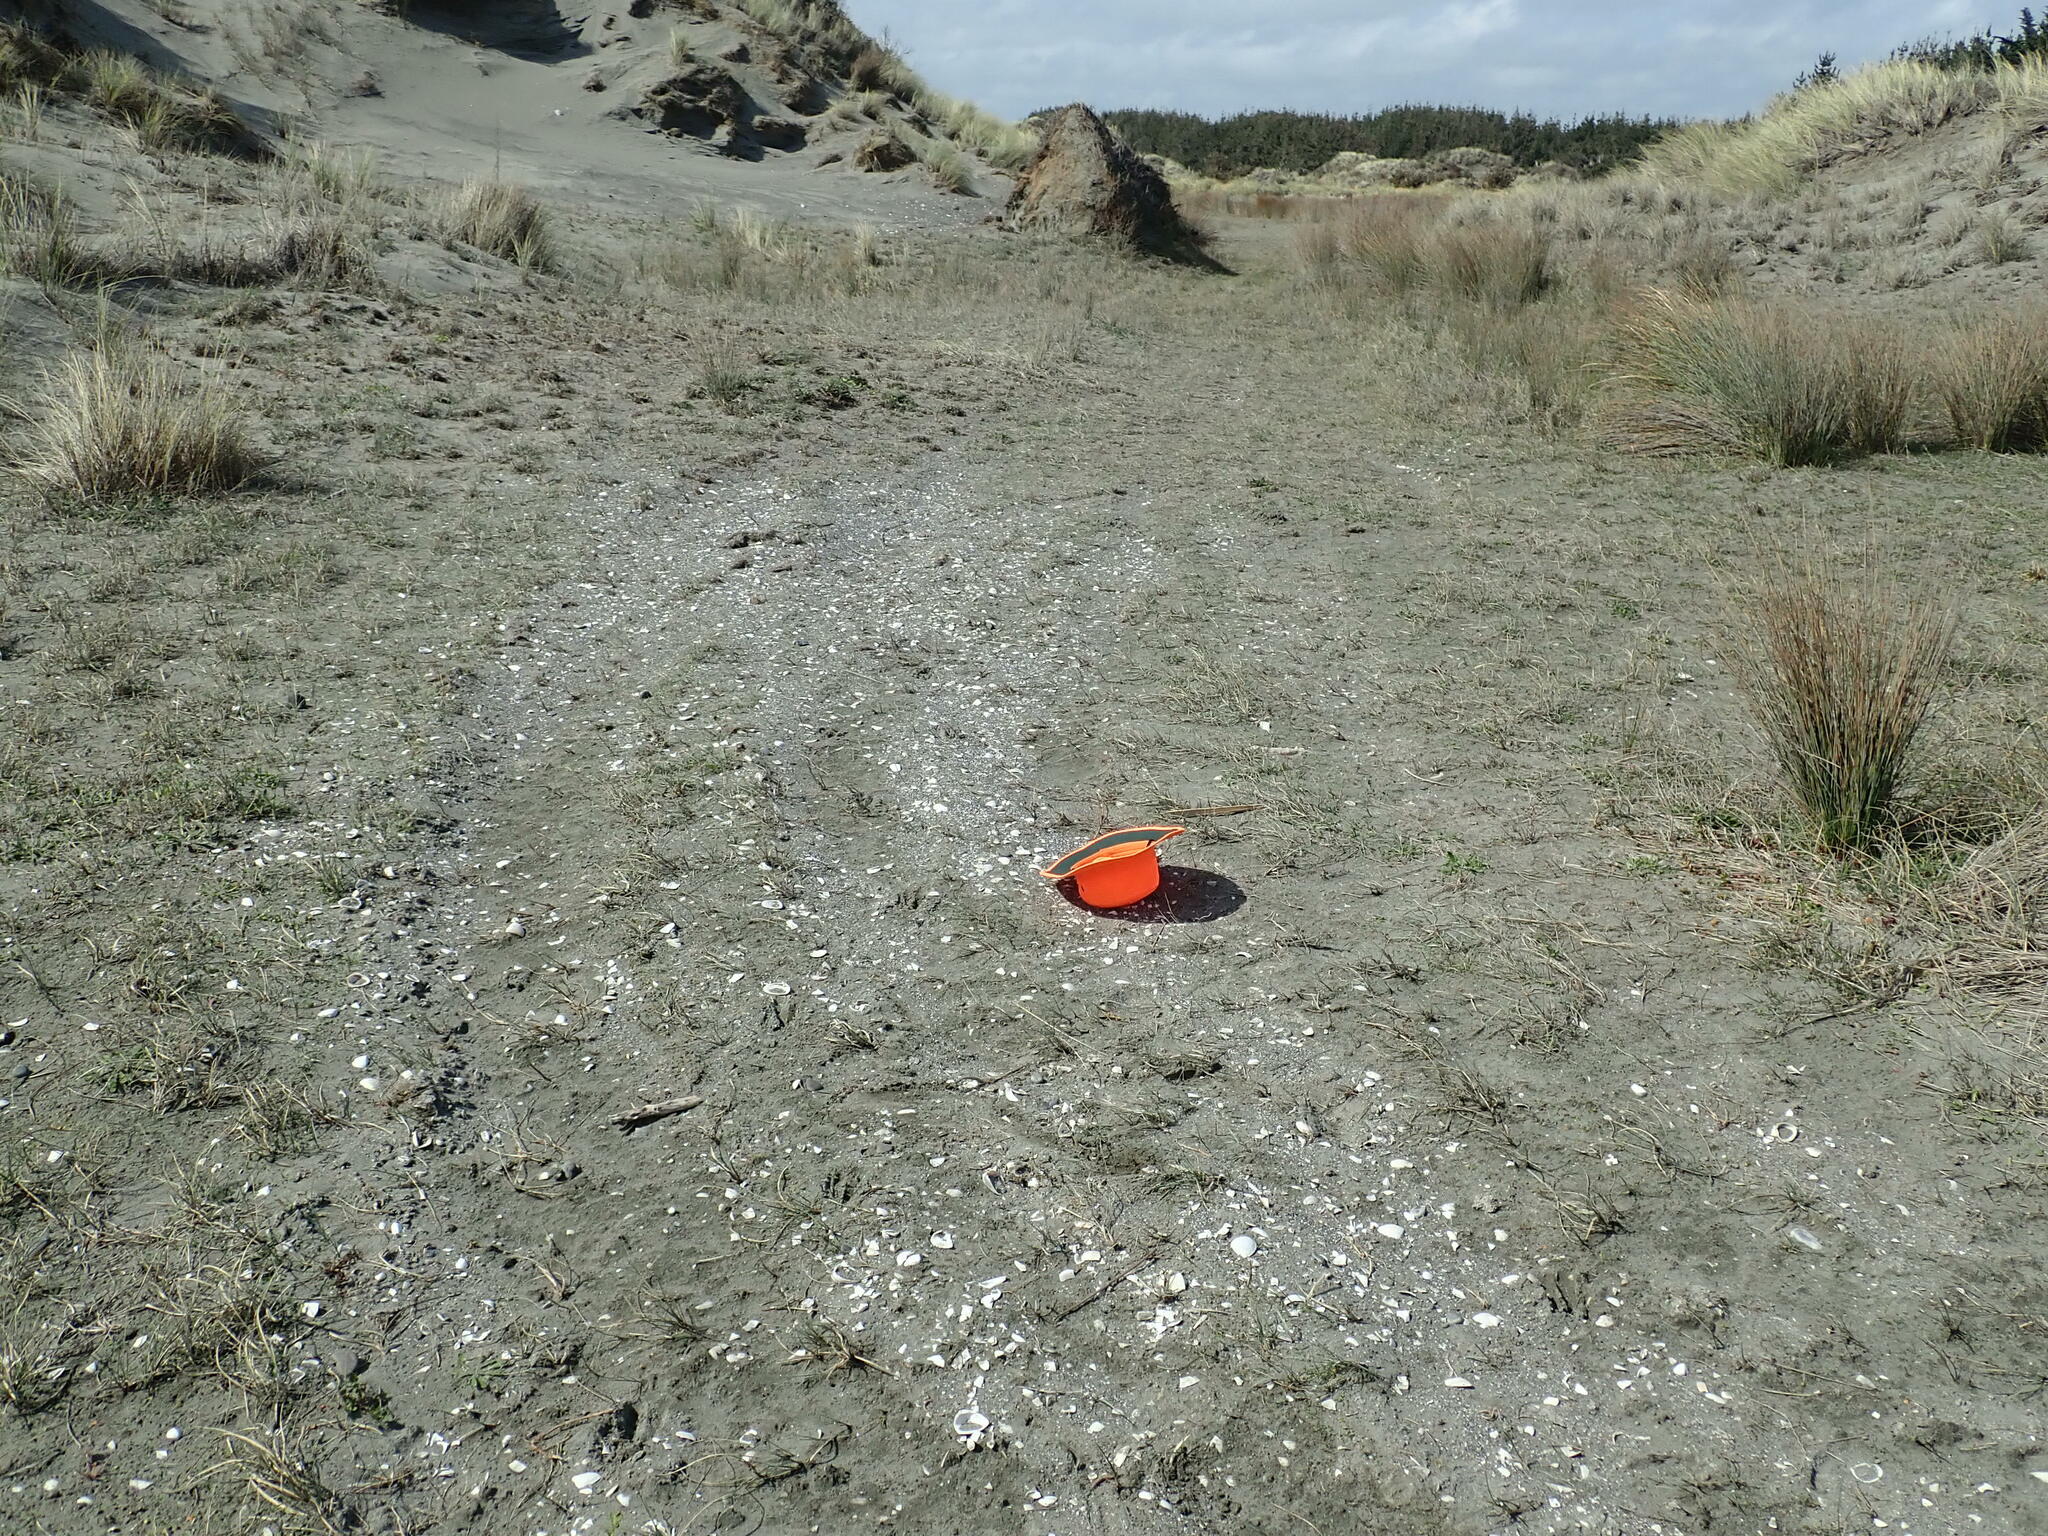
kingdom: Plantae
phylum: Tracheophyta
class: Magnoliopsida
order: Apiales
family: Apiaceae
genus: Lilaeopsis
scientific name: Lilaeopsis novae-zelandiae
